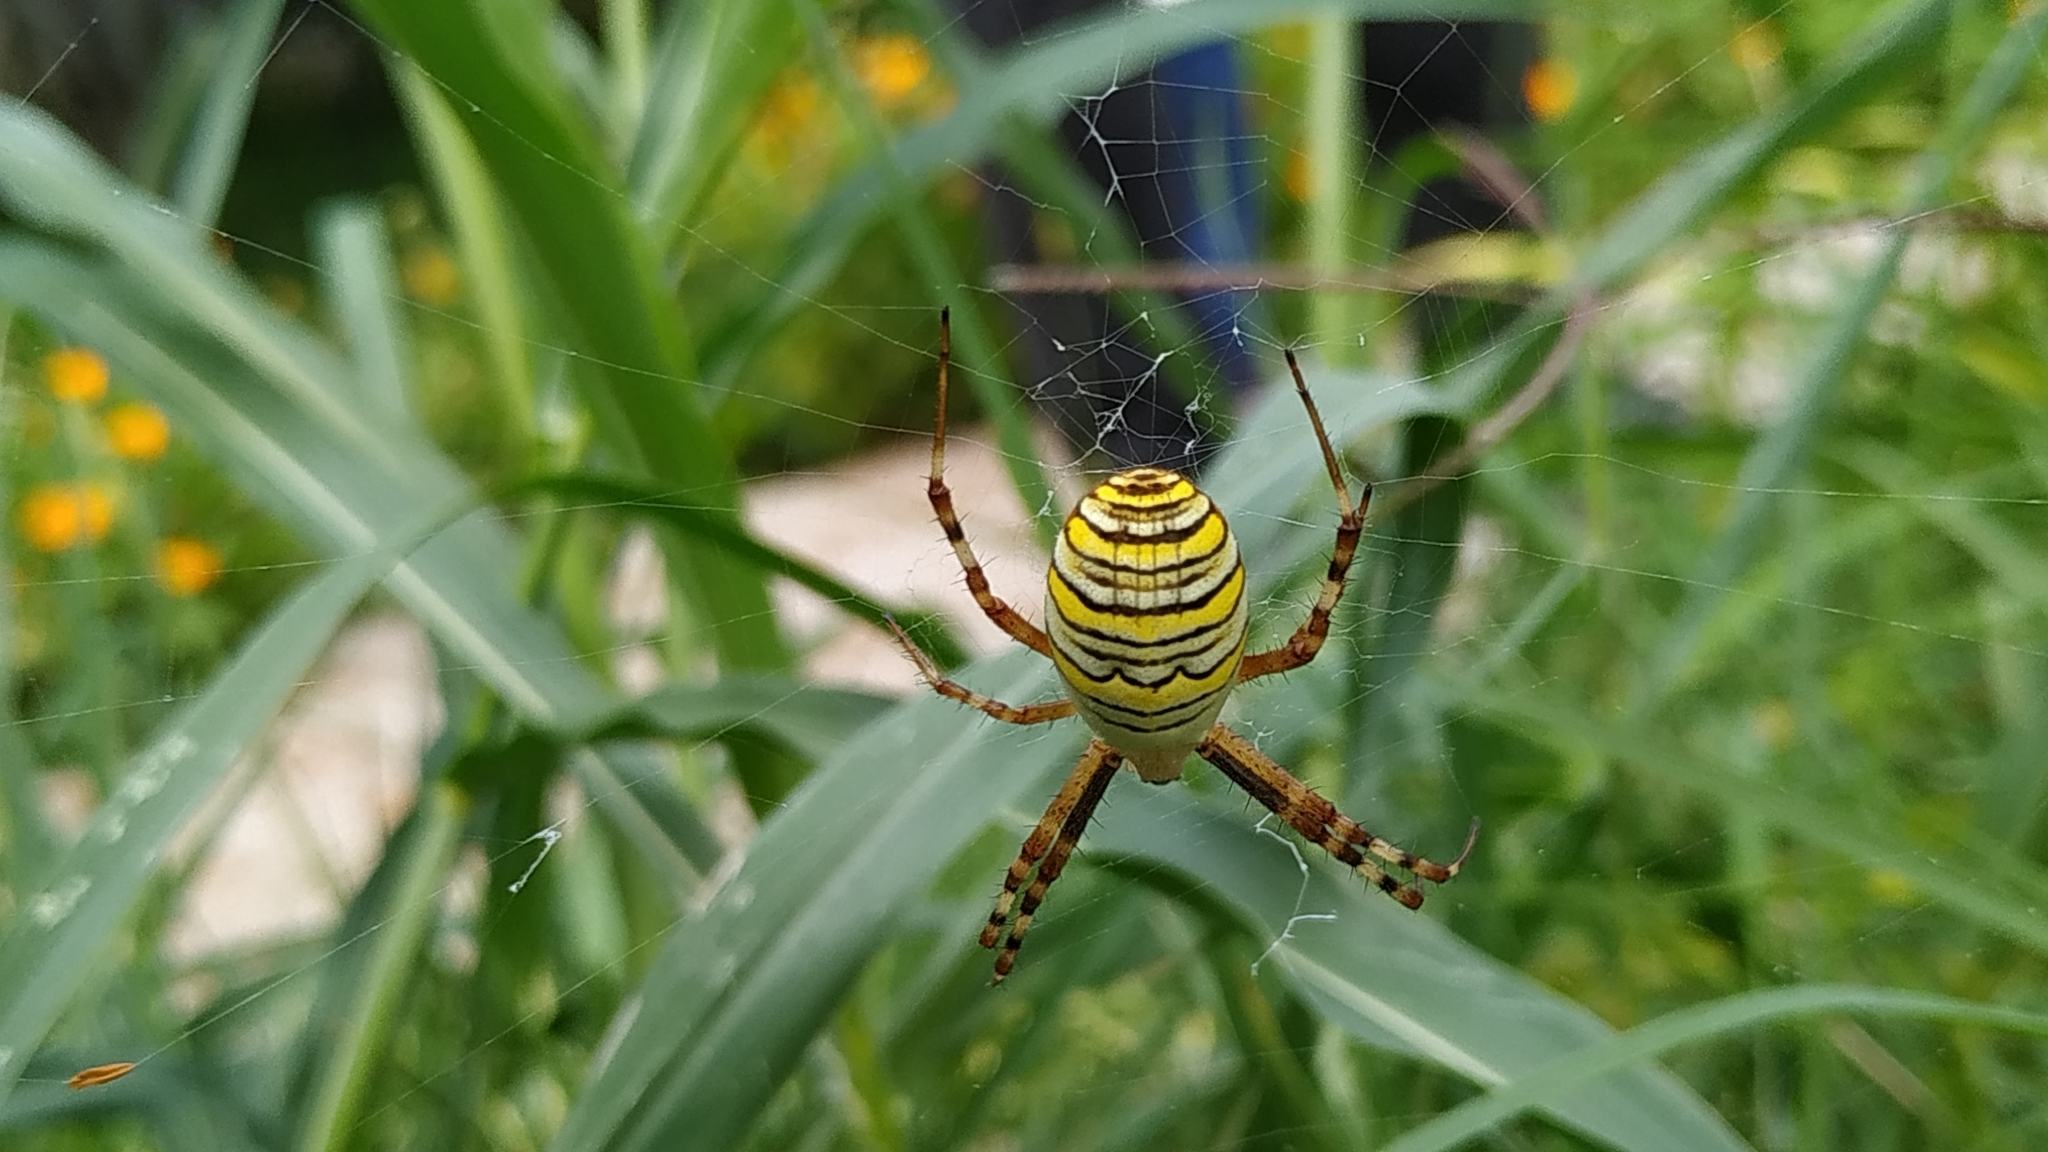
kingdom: Animalia
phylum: Arthropoda
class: Arachnida
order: Araneae
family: Araneidae
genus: Argiope
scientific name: Argiope bruennichi
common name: Wasp spider
